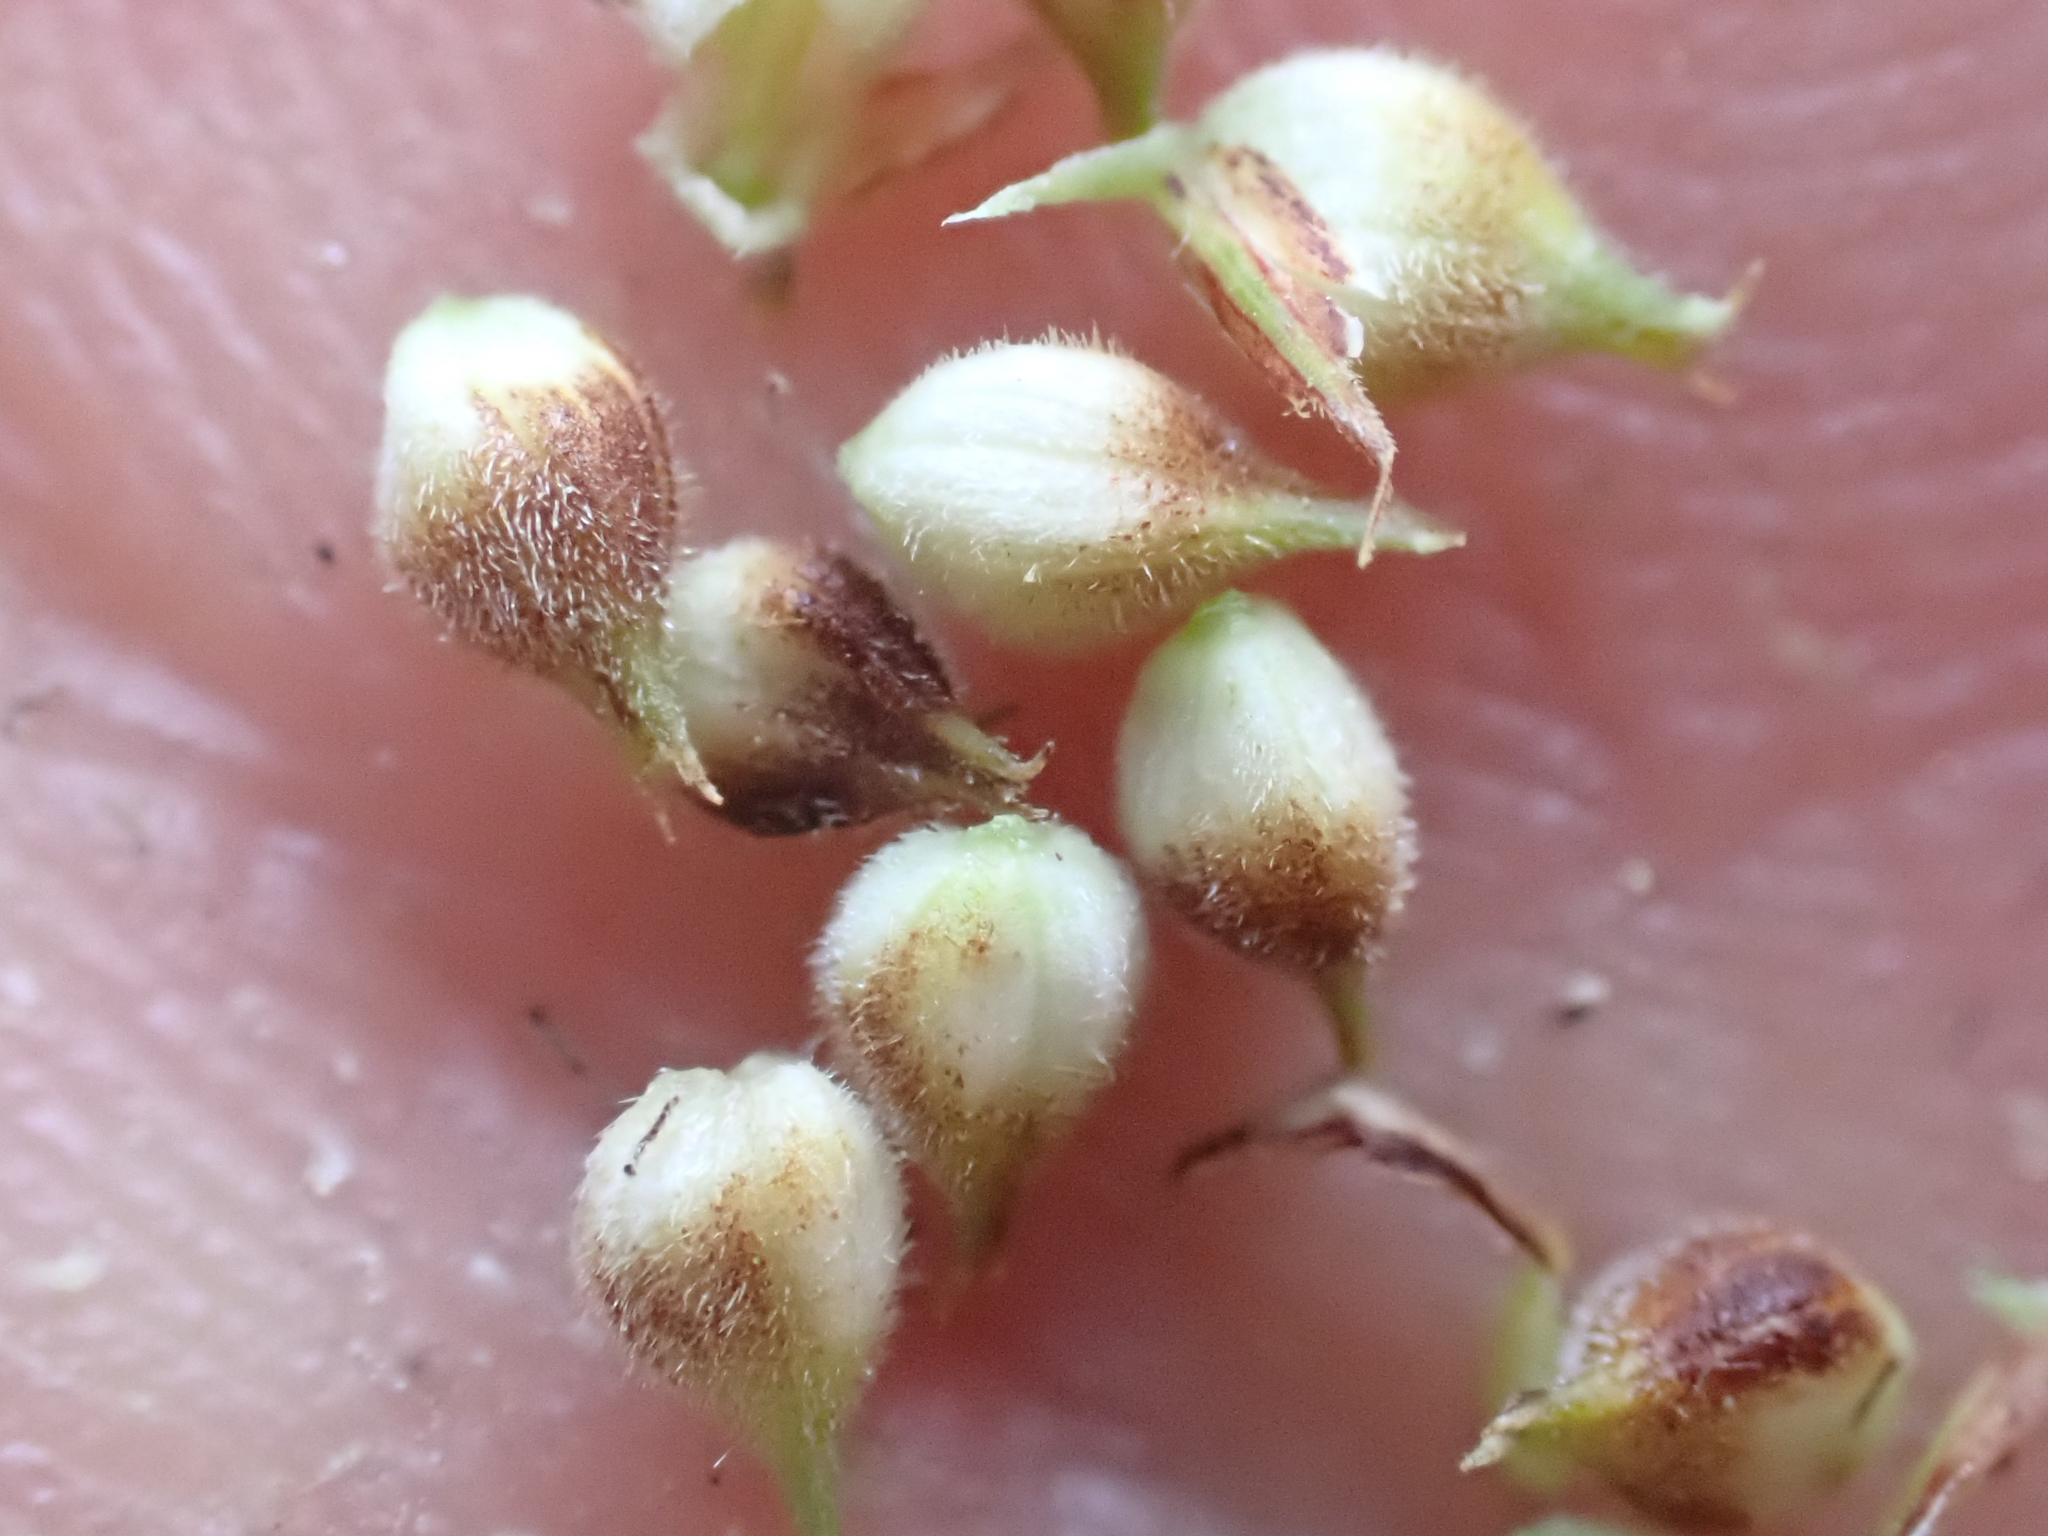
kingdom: Plantae
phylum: Tracheophyta
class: Liliopsida
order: Poales
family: Cyperaceae
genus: Carex
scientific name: Carex pellita
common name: Woolly sedge
